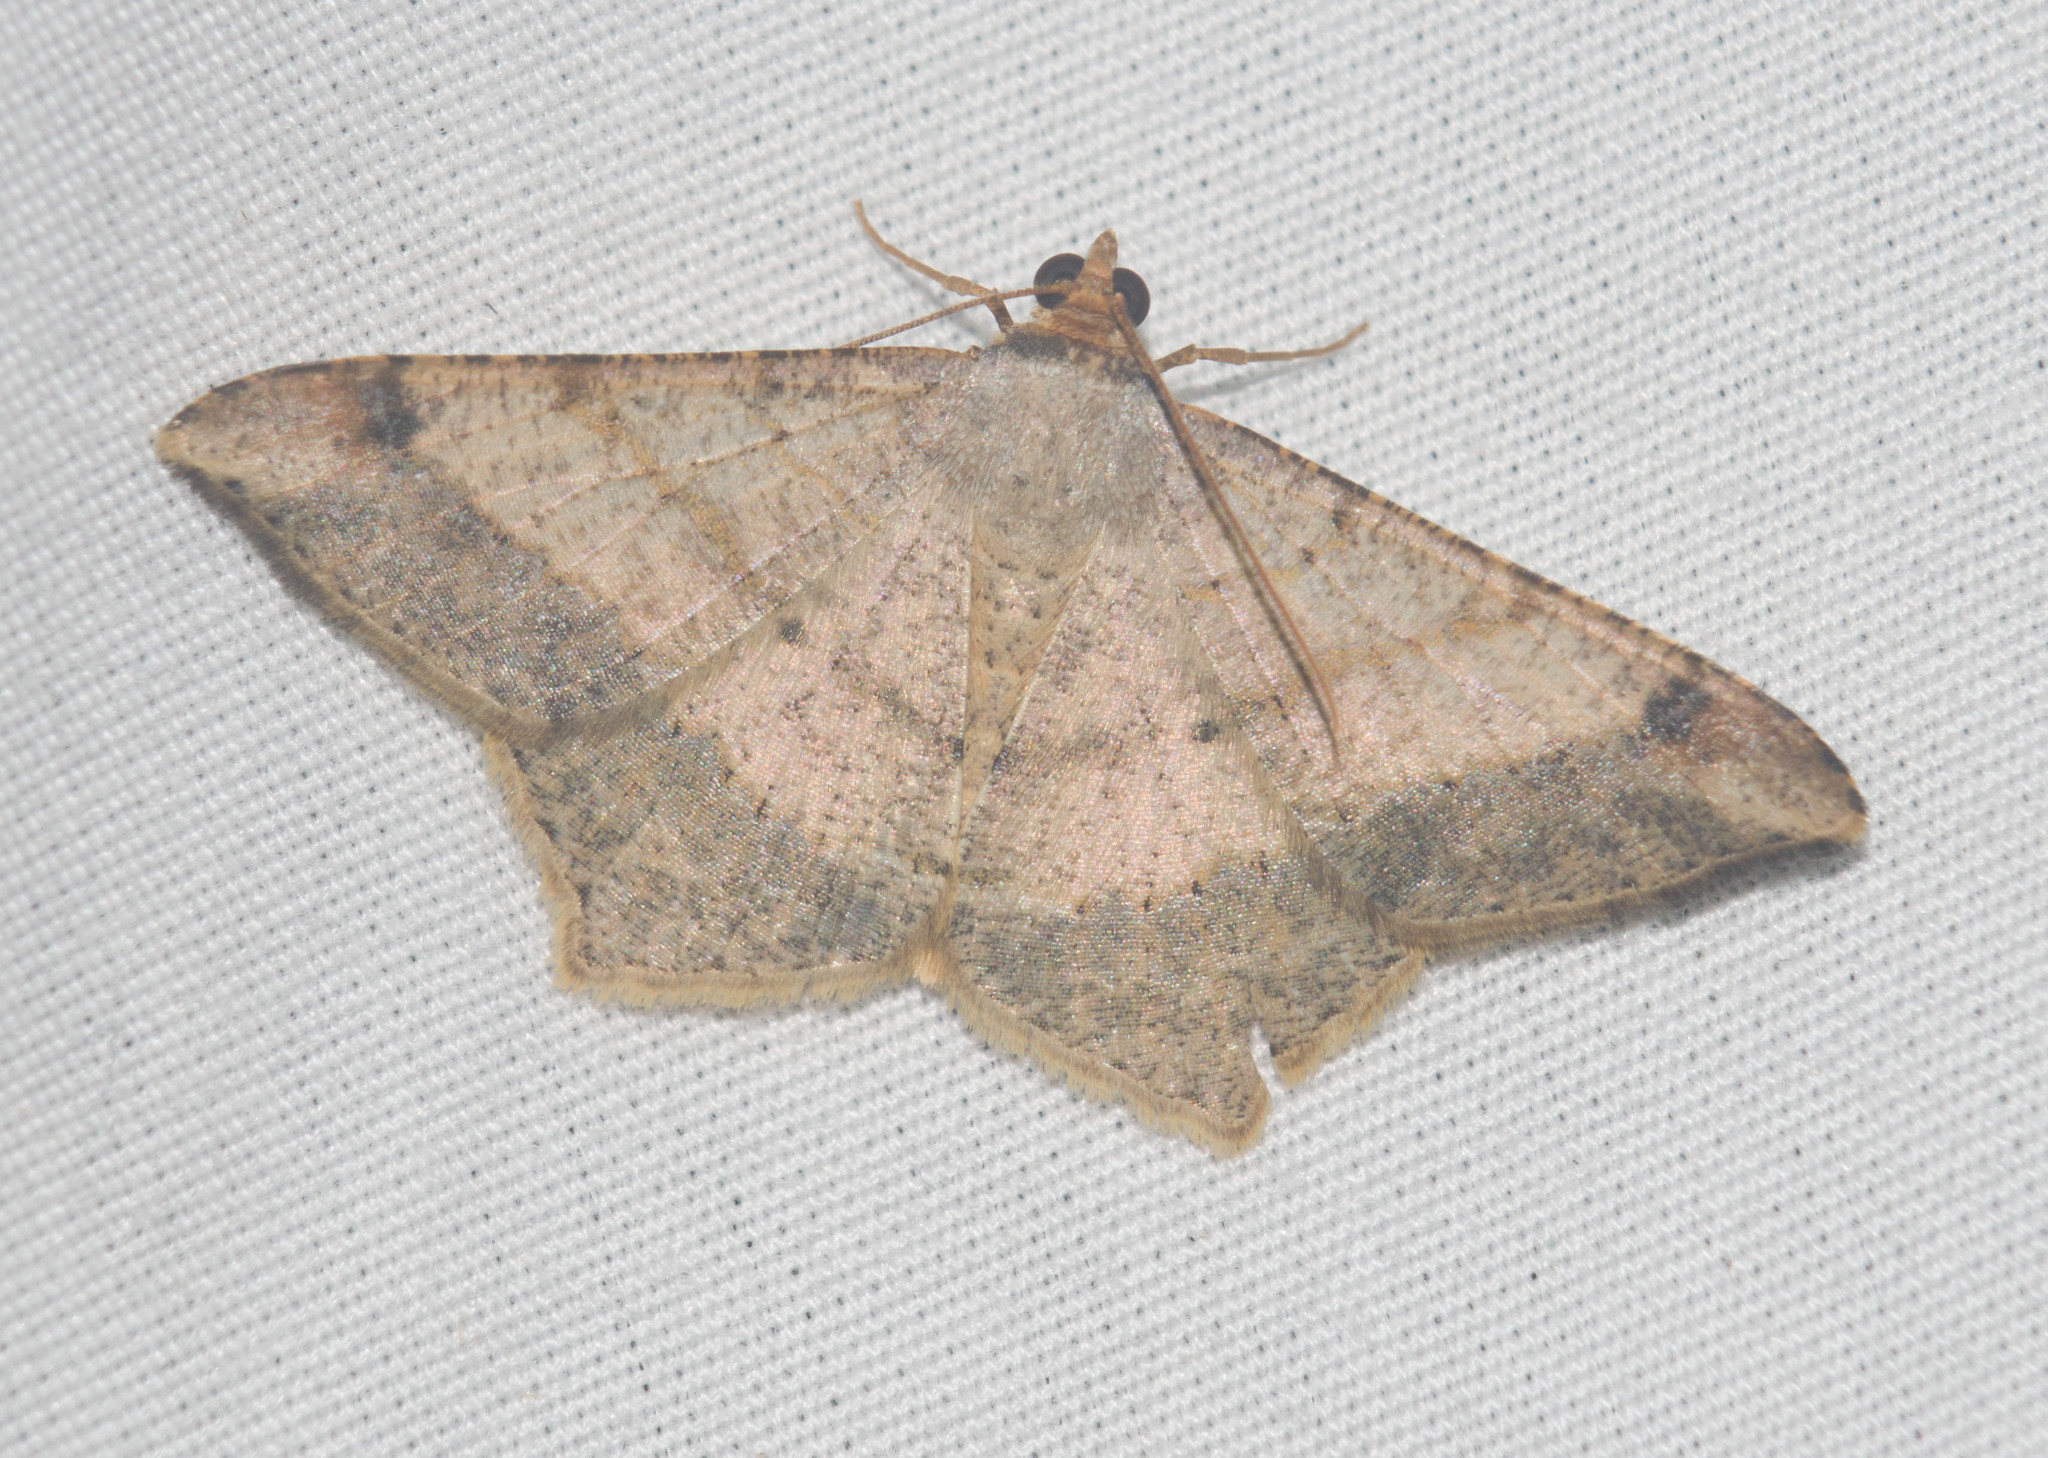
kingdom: Animalia
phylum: Arthropoda
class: Insecta
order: Lepidoptera
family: Geometridae
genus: Macaria
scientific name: Macaria abydata
